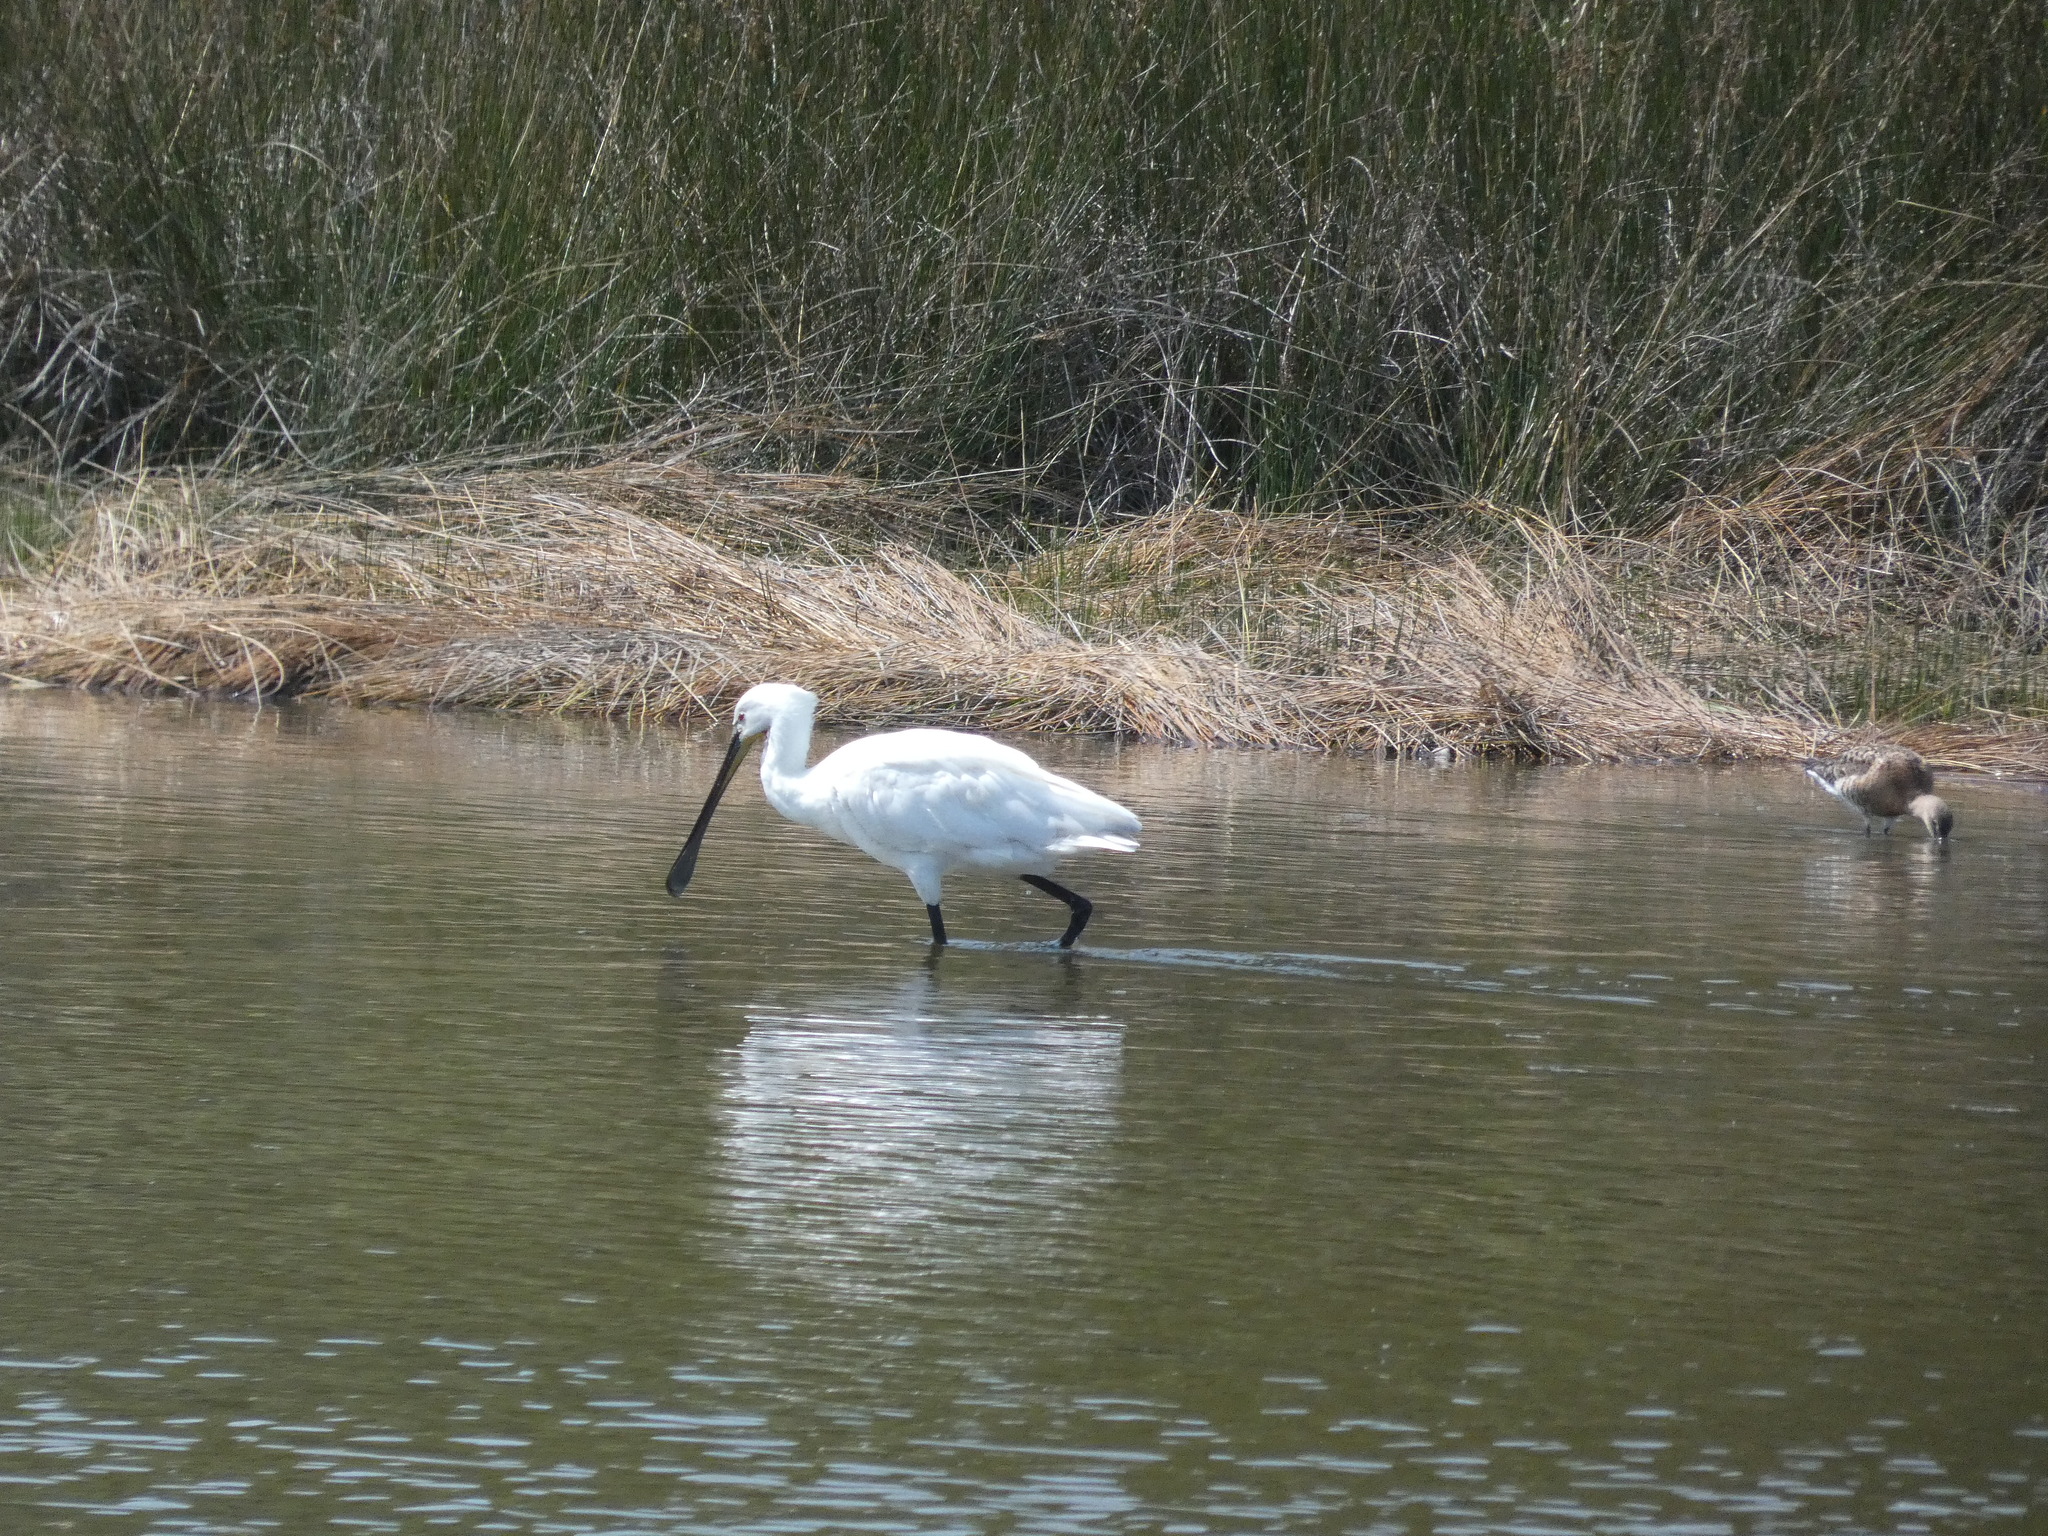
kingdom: Animalia
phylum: Chordata
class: Aves
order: Pelecaniformes
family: Threskiornithidae
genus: Platalea
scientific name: Platalea leucorodia
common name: Eurasian spoonbill
